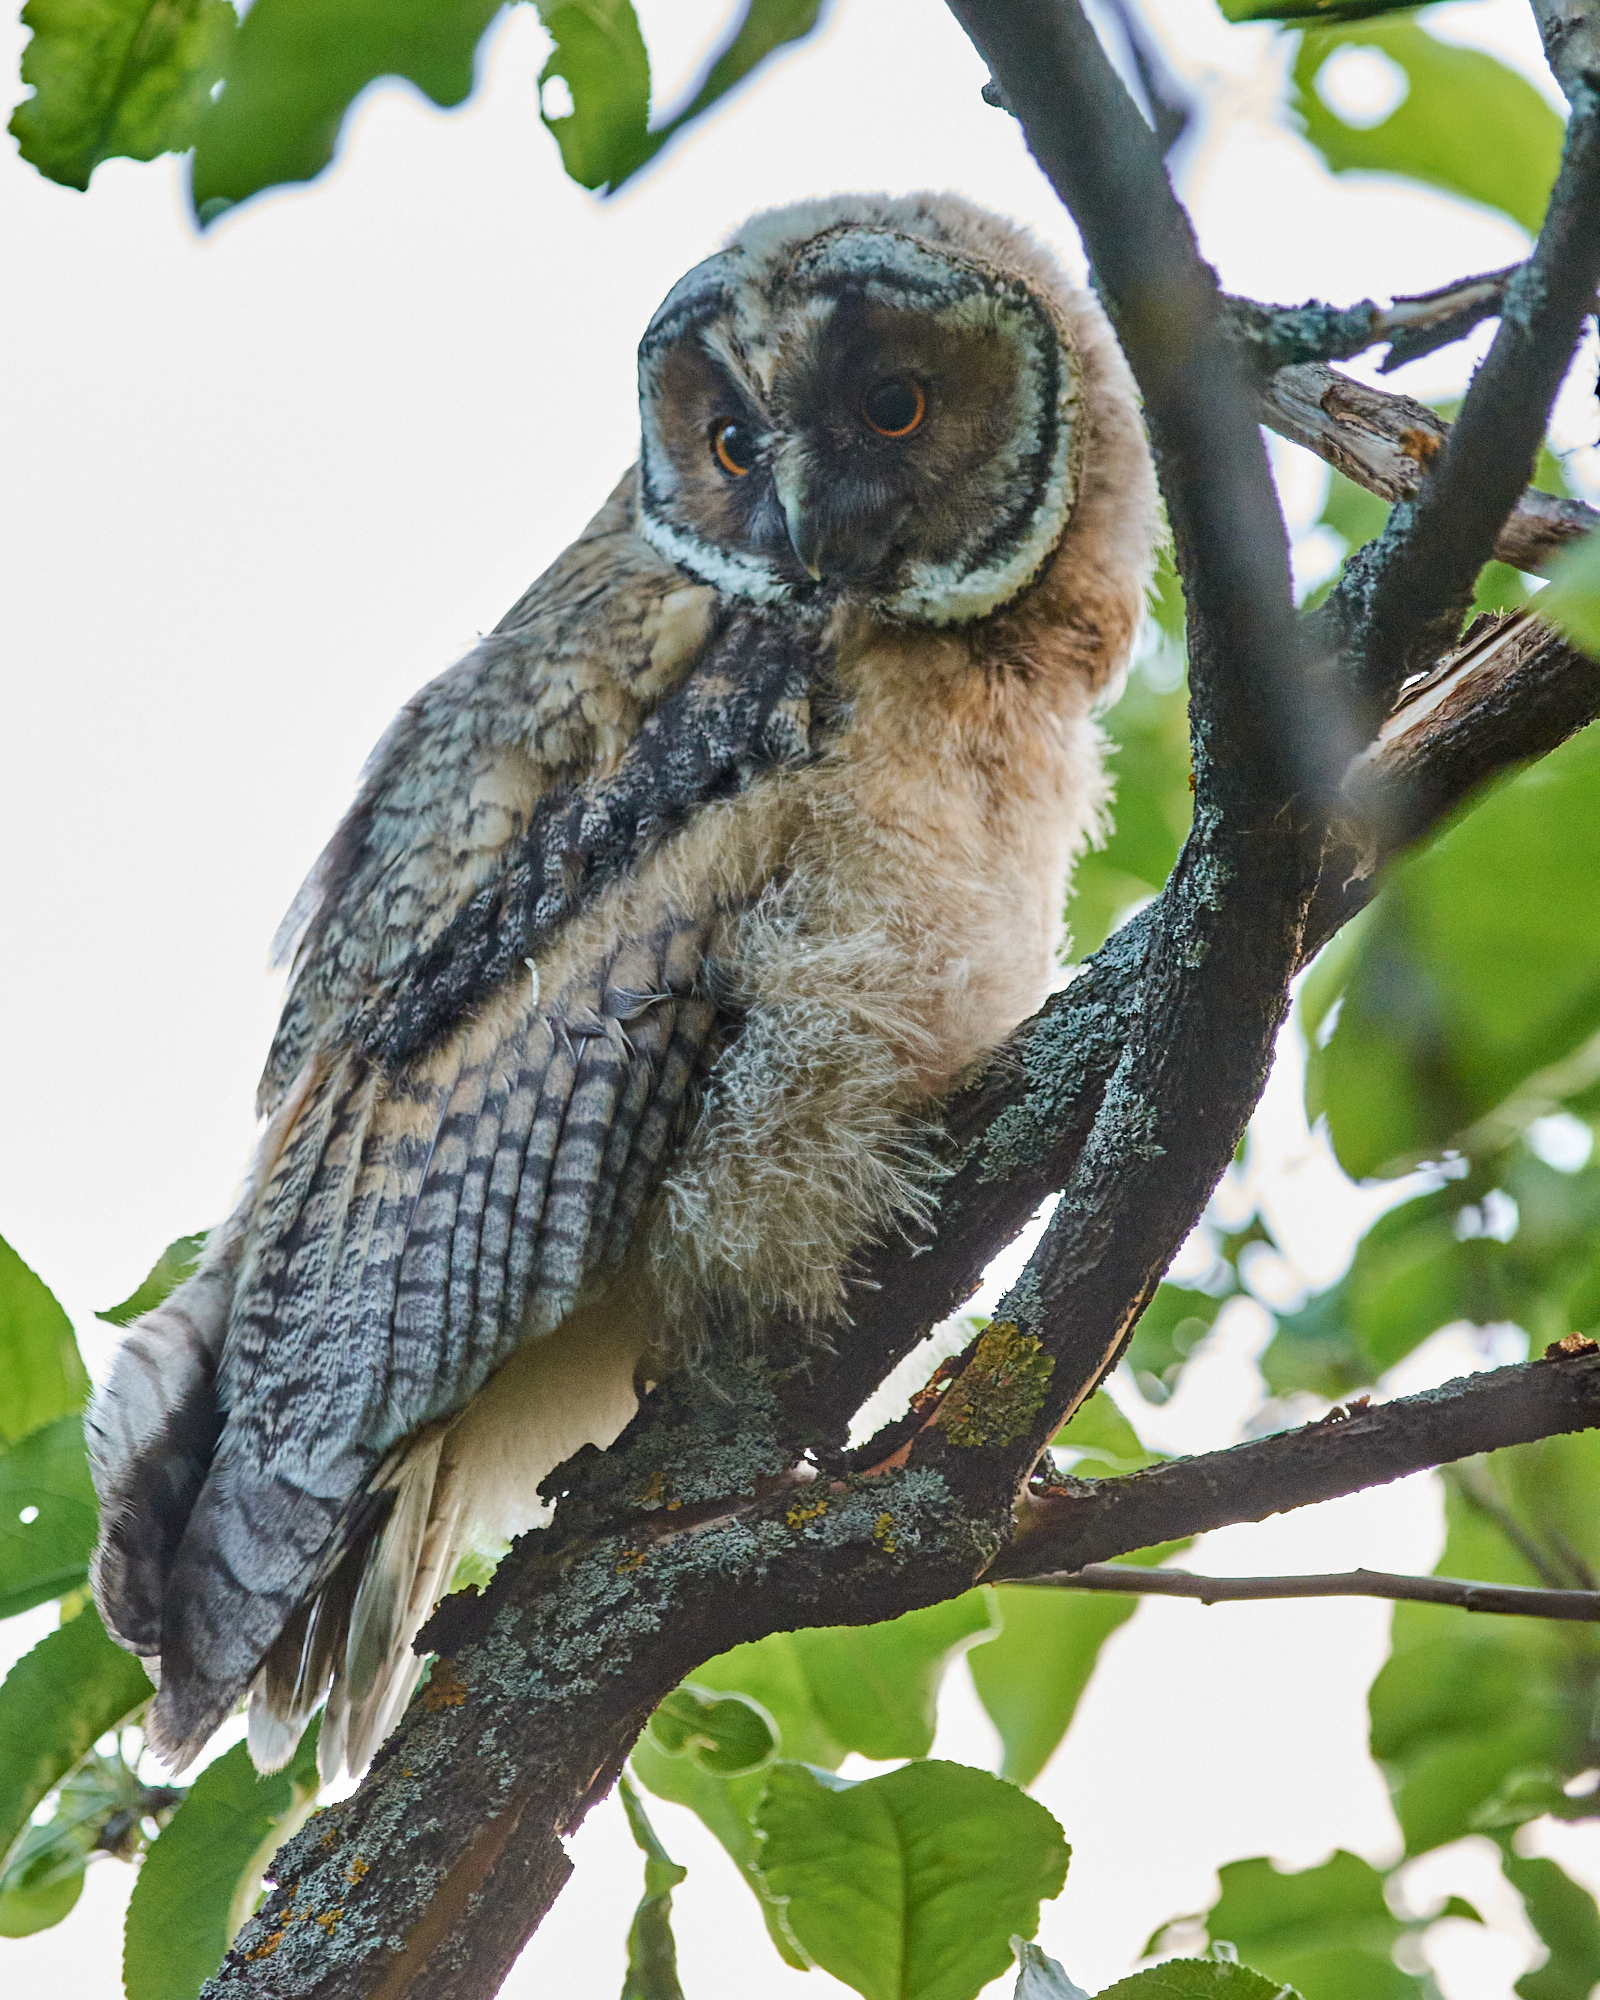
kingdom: Animalia
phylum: Chordata
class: Aves
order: Strigiformes
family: Strigidae
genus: Asio
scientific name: Asio otus
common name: Long-eared owl
